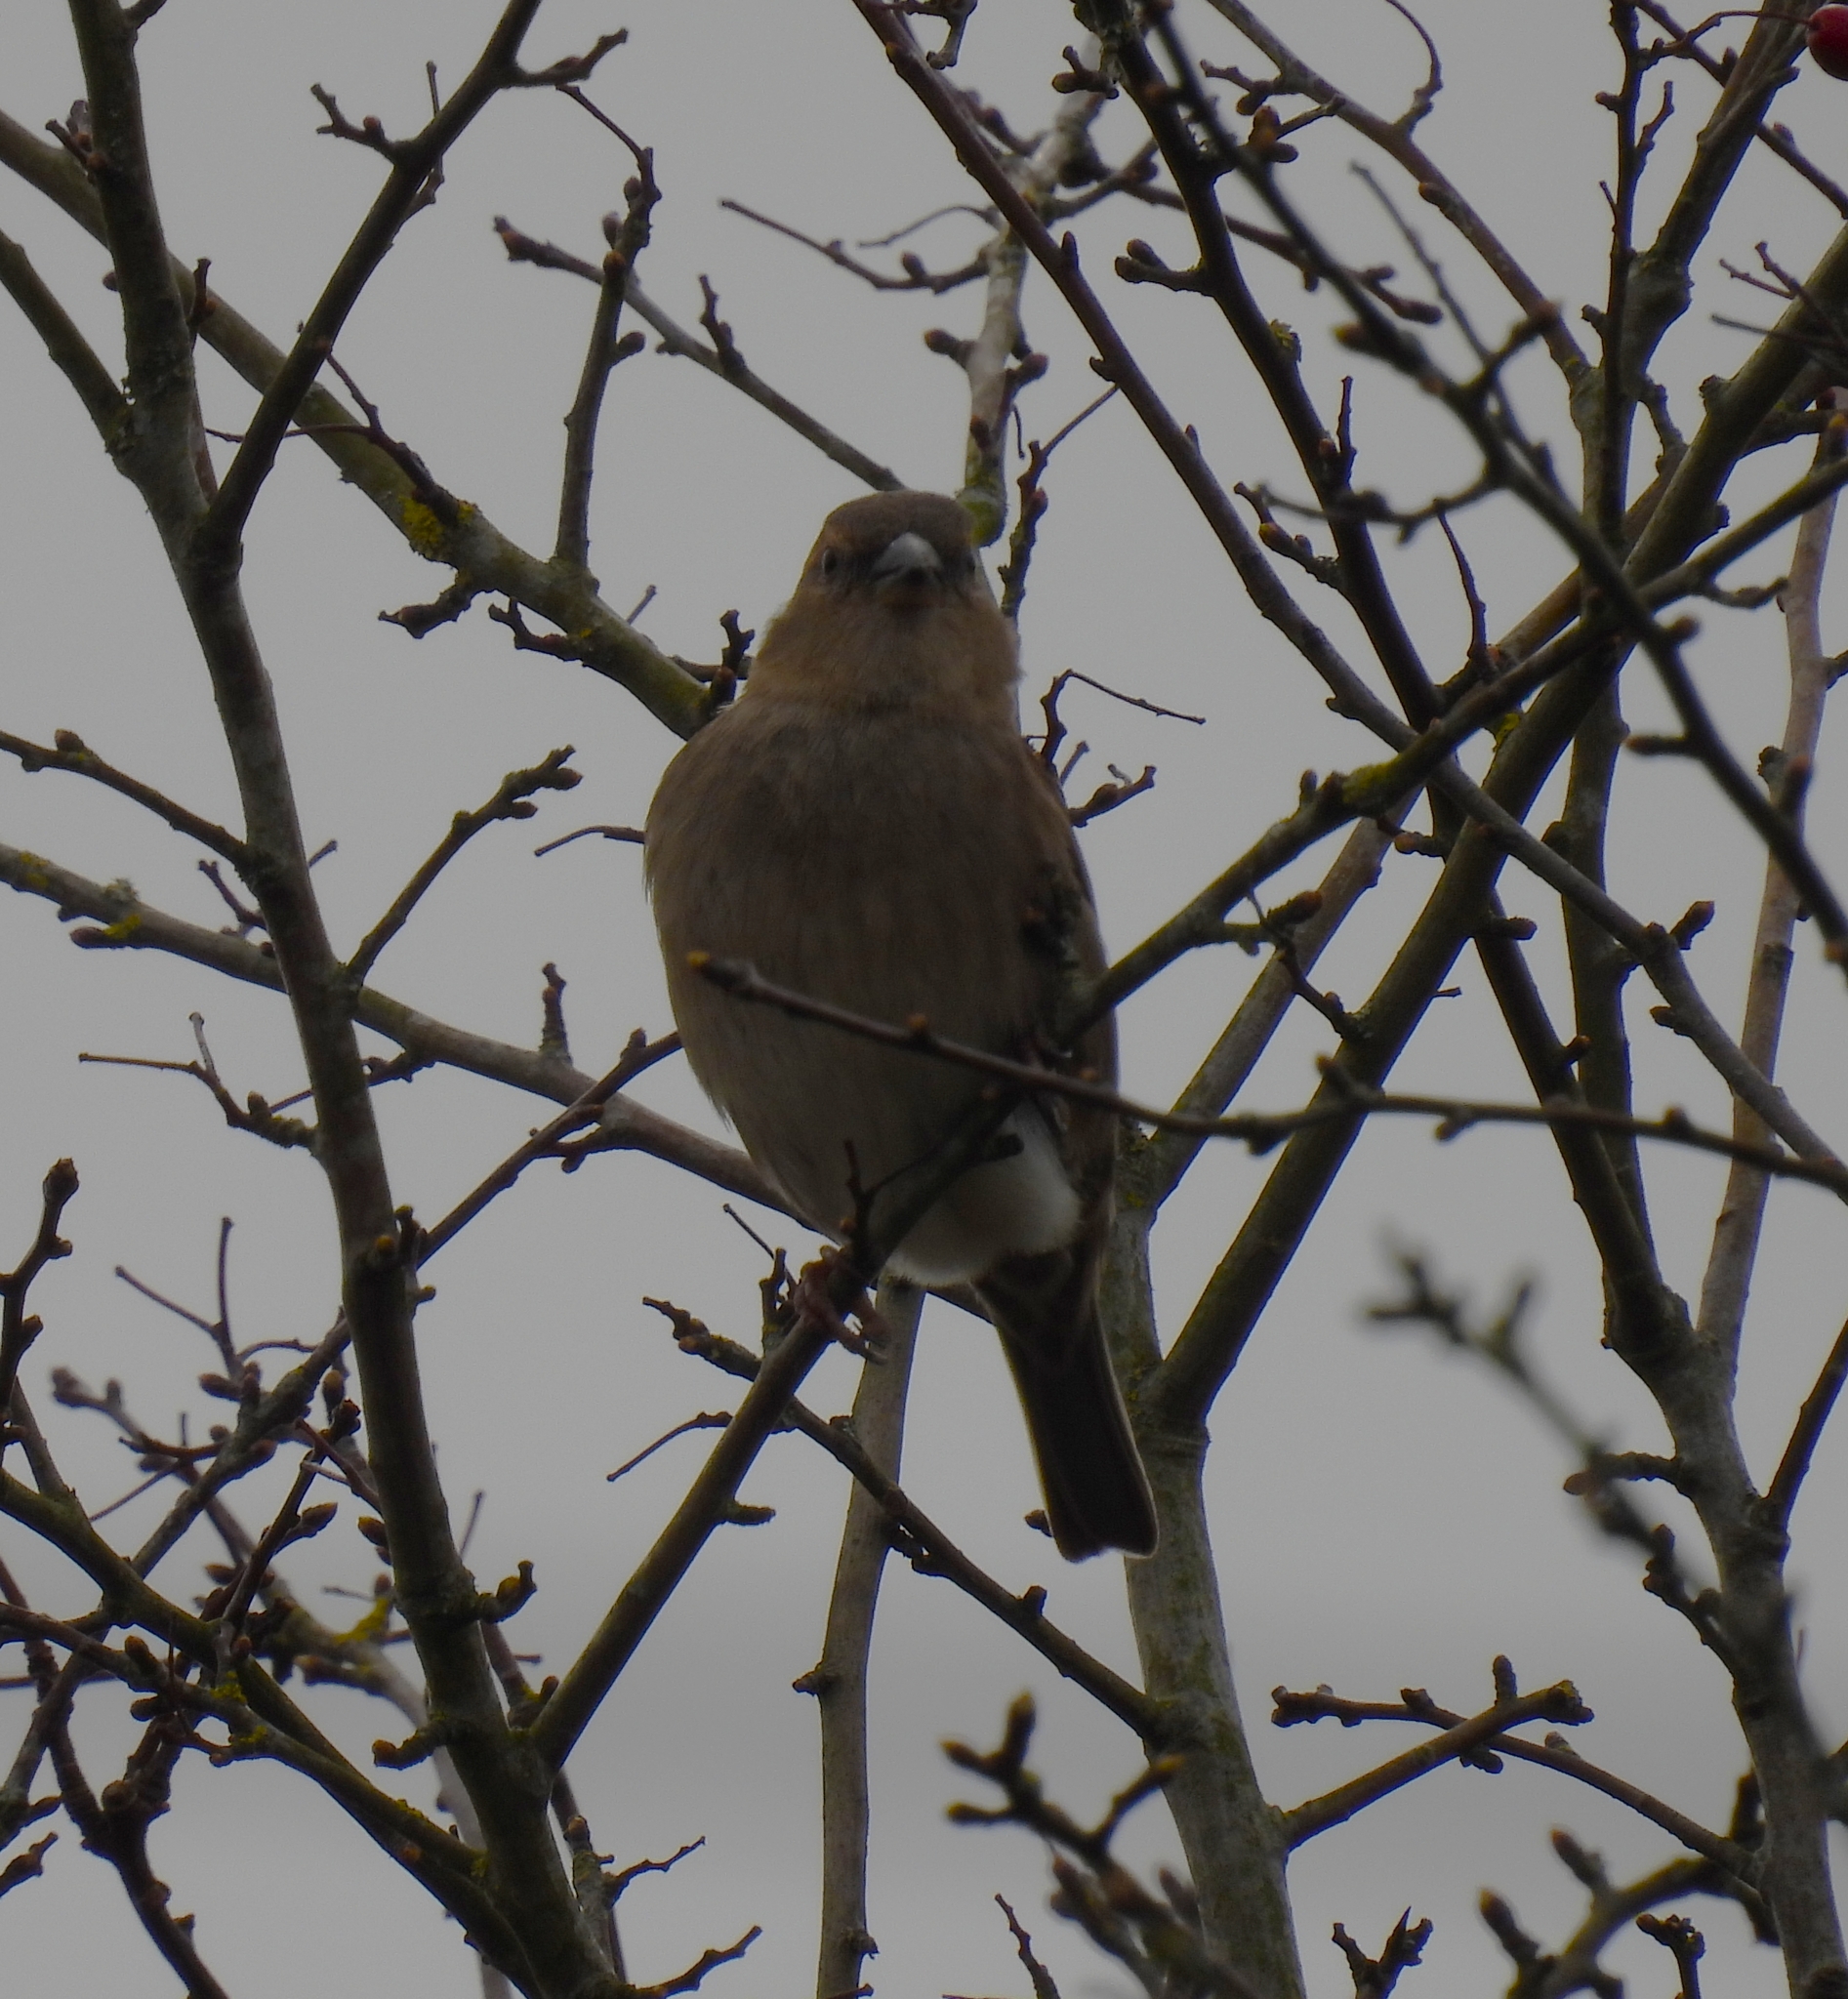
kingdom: Animalia
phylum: Chordata
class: Aves
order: Passeriformes
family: Fringillidae
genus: Fringilla
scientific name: Fringilla coelebs
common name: Common chaffinch
